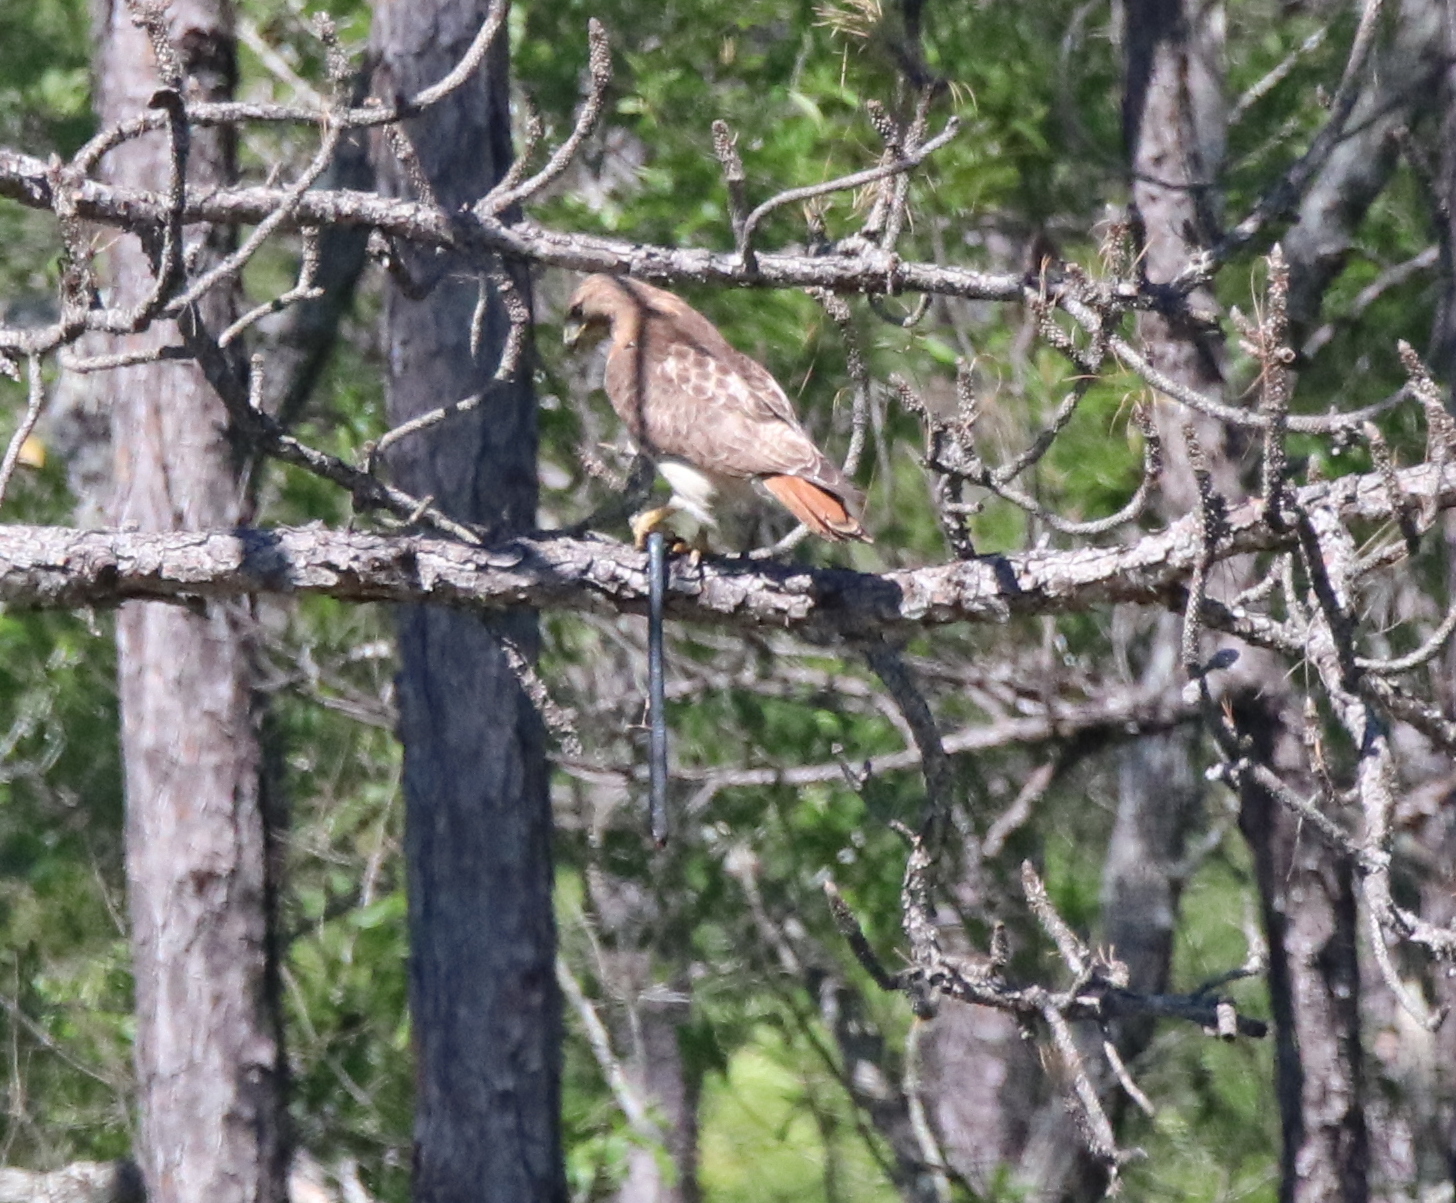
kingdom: Animalia
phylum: Chordata
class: Aves
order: Accipitriformes
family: Accipitridae
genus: Buteo
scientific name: Buteo jamaicensis
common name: Red-tailed hawk
